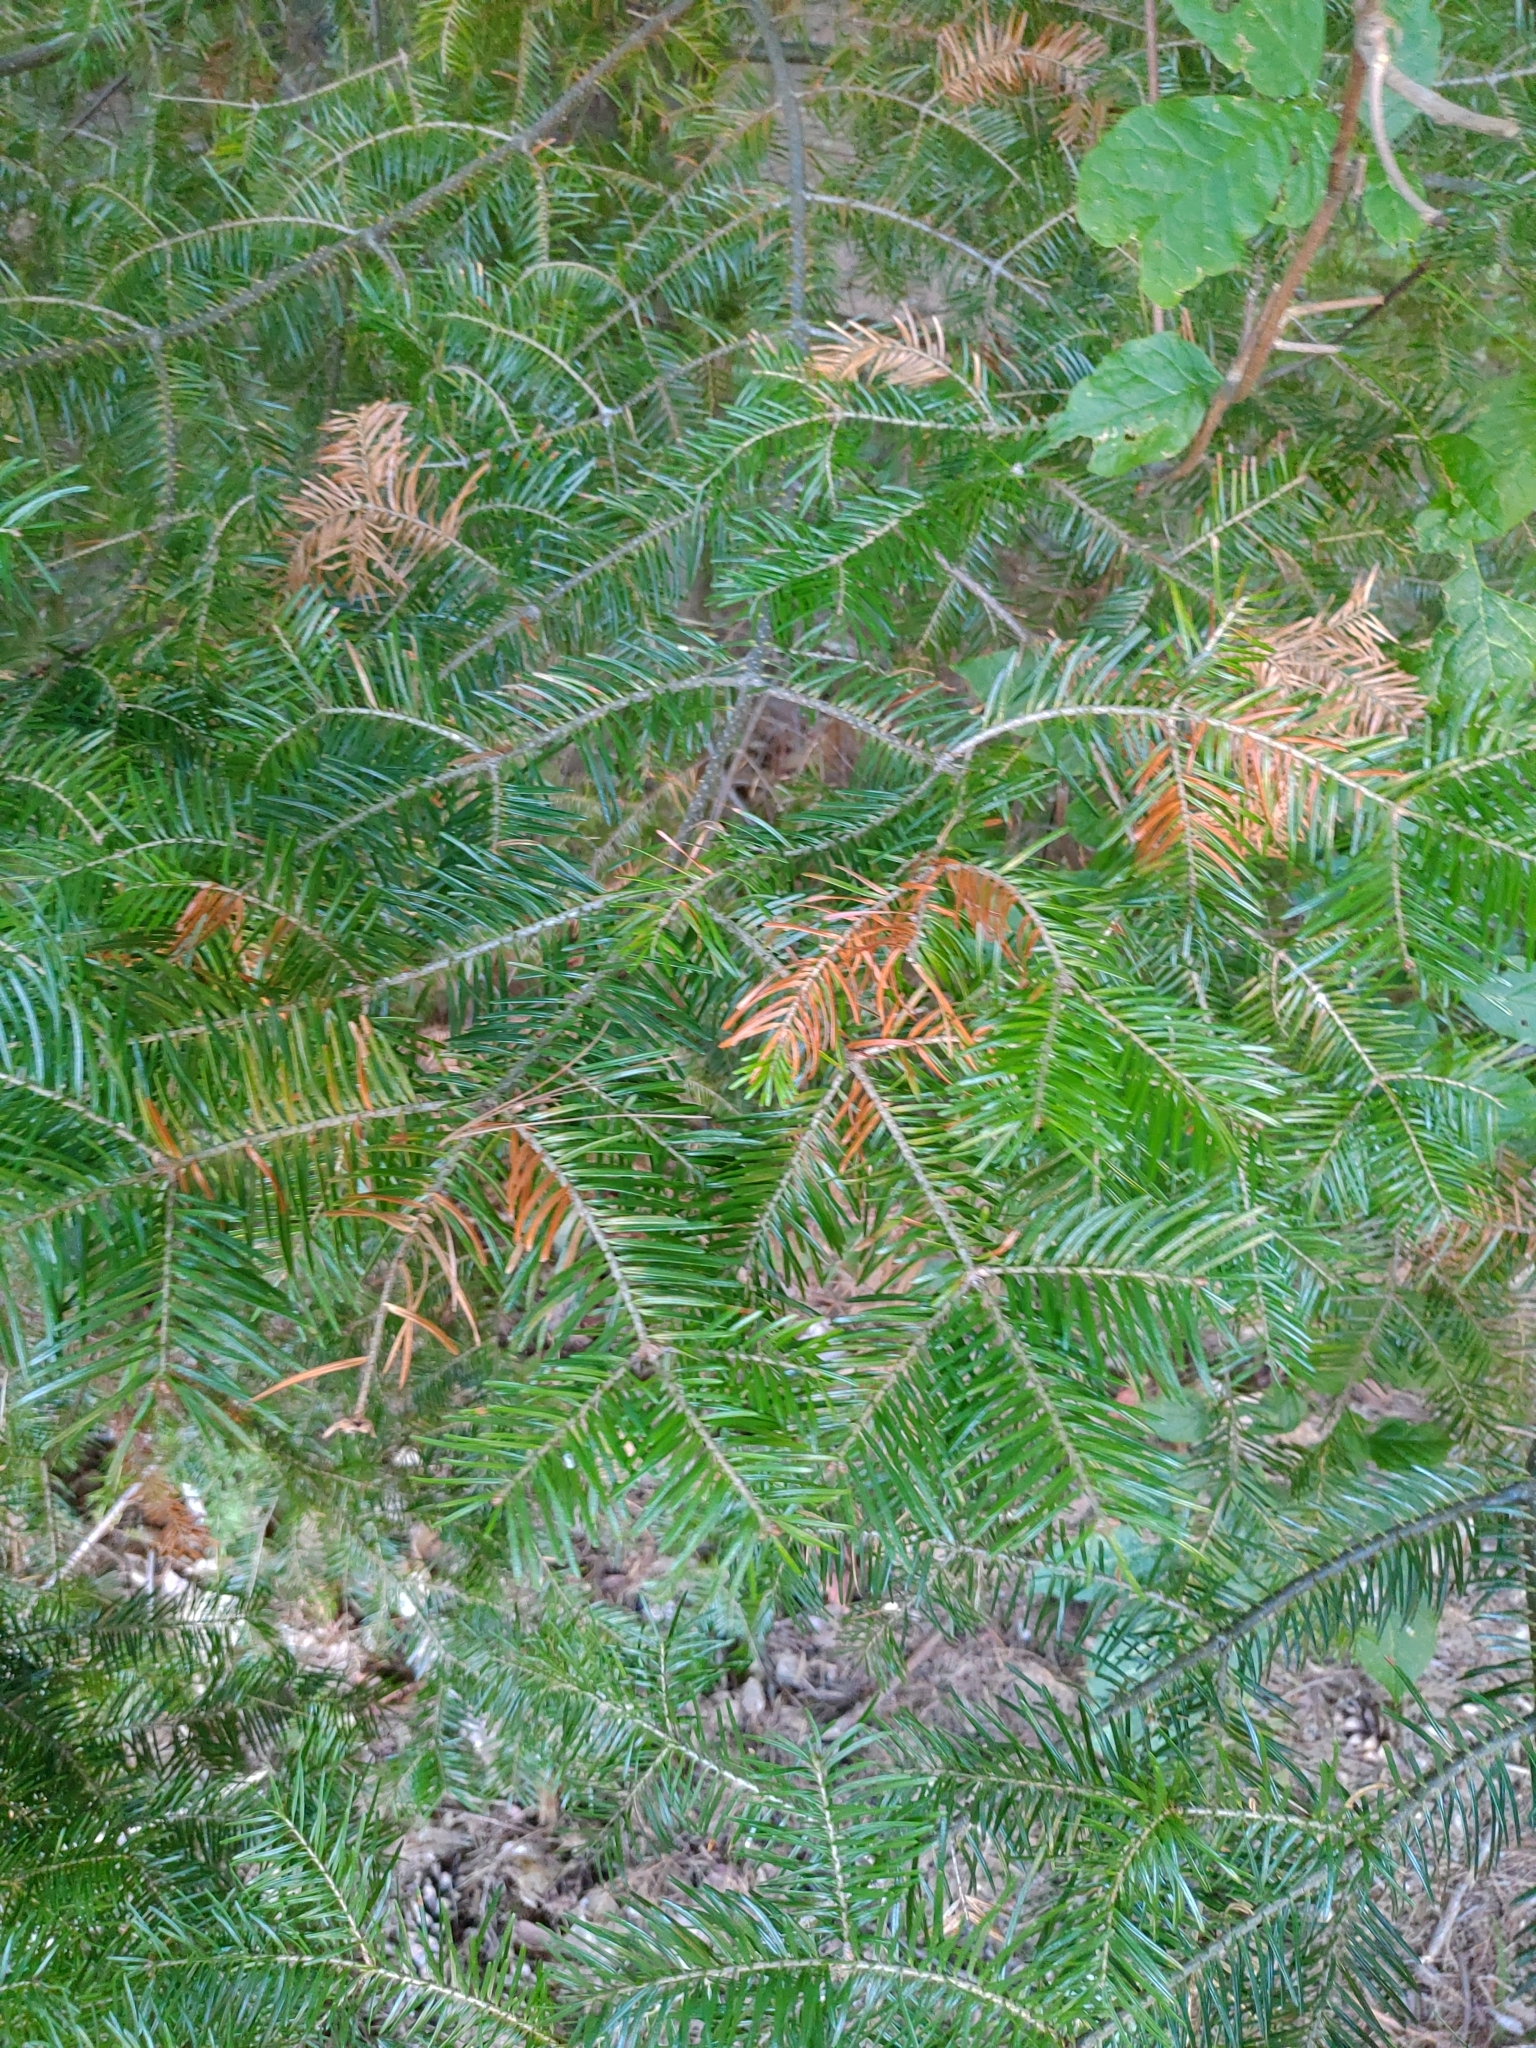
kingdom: Plantae
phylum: Tracheophyta
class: Pinopsida
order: Pinales
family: Pinaceae
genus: Abies
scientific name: Abies balsamea
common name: Balsam fir
